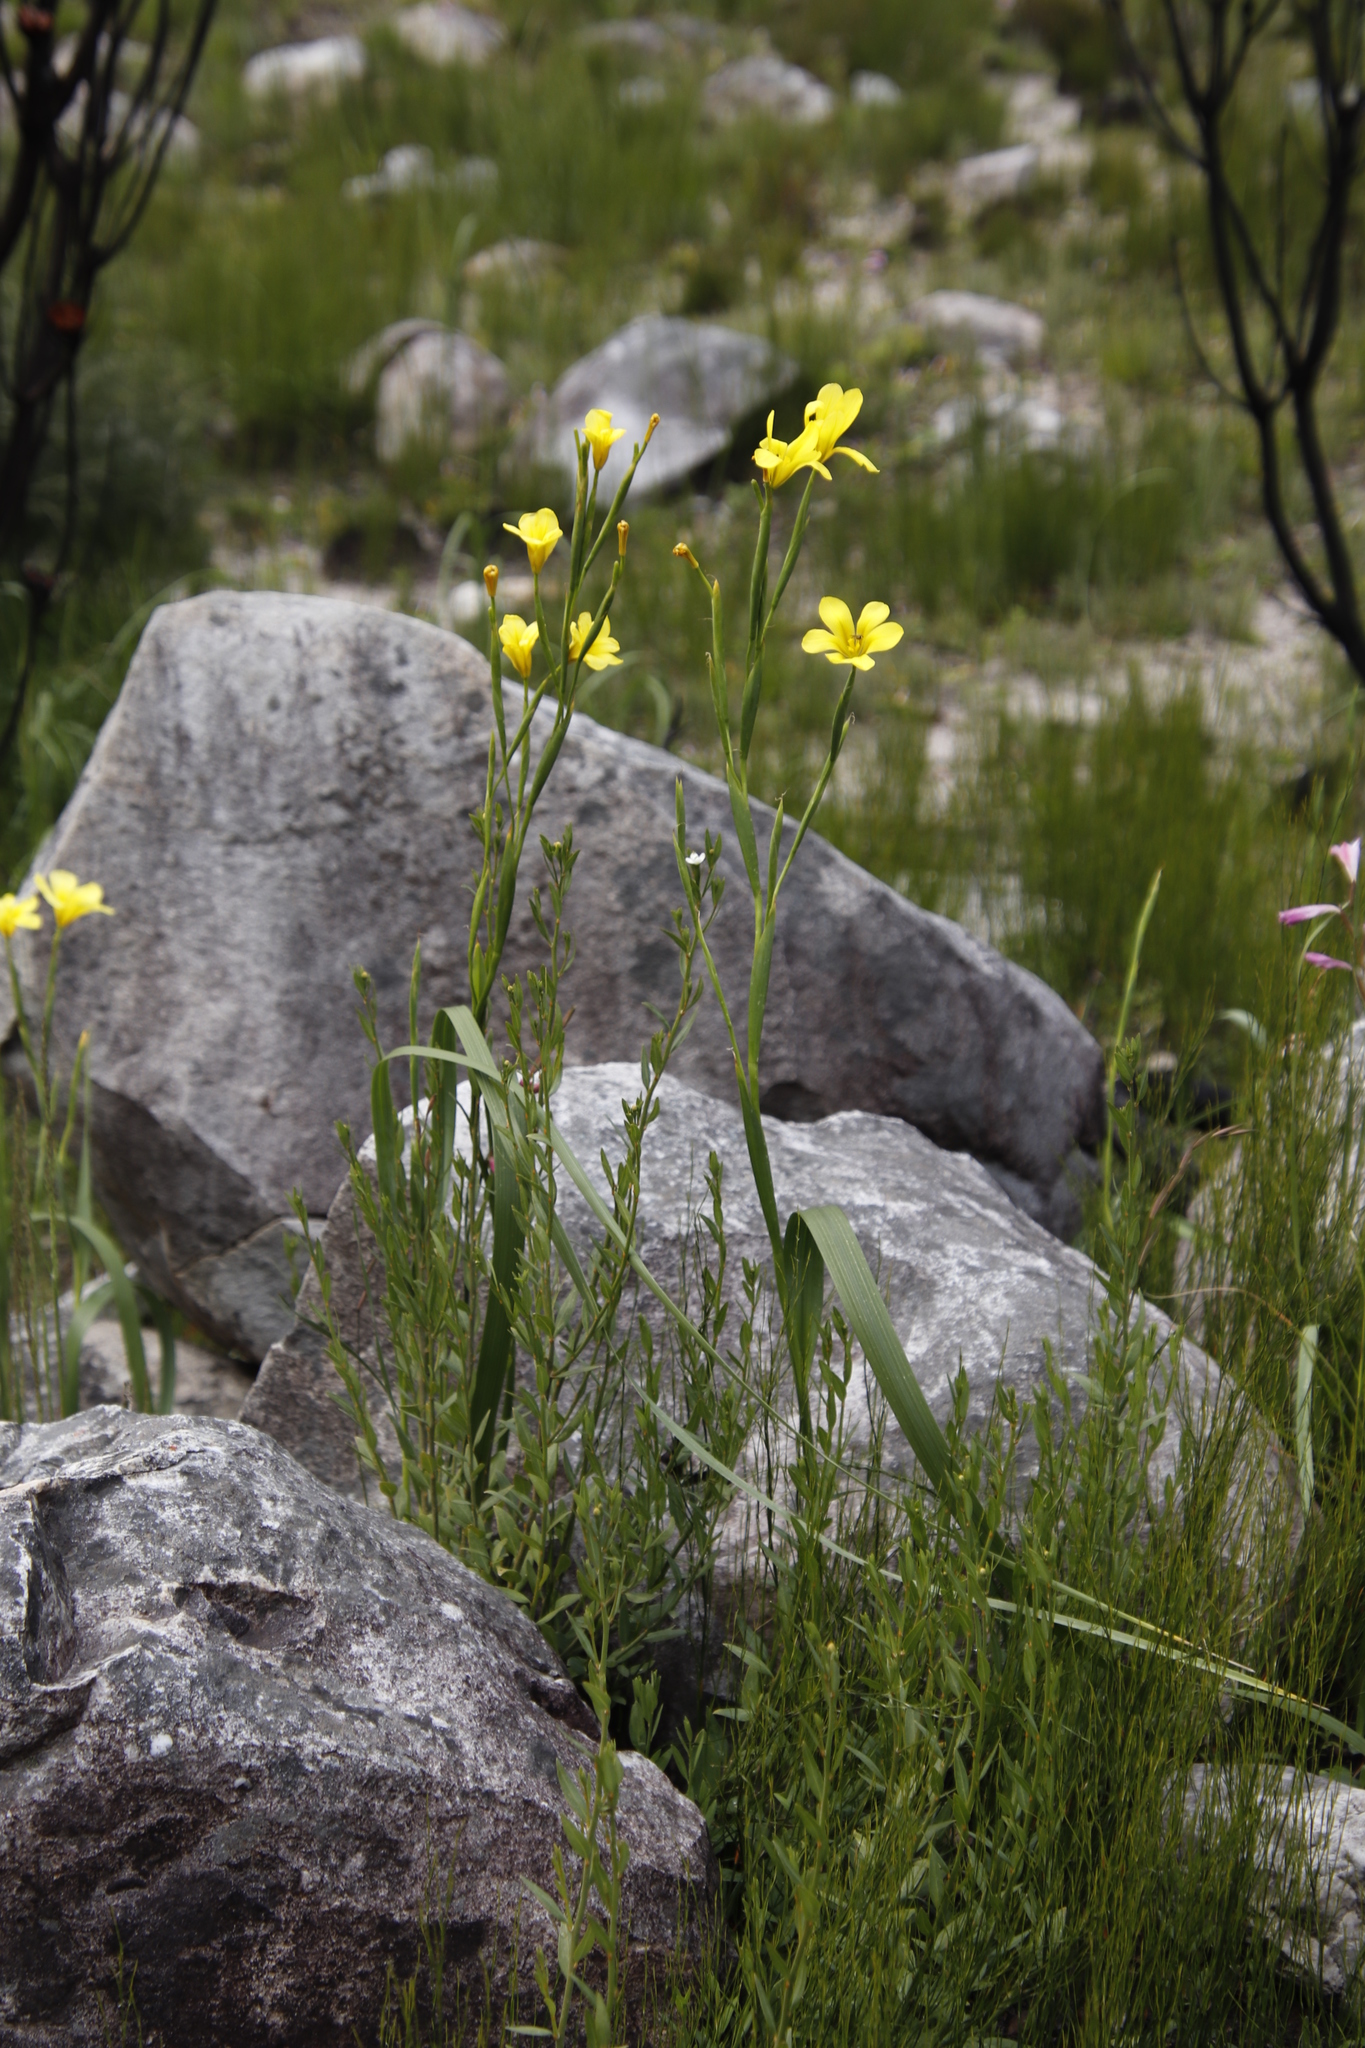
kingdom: Plantae
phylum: Tracheophyta
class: Liliopsida
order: Asparagales
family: Iridaceae
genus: Moraea
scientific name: Moraea ochroleuca
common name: Red tulp
